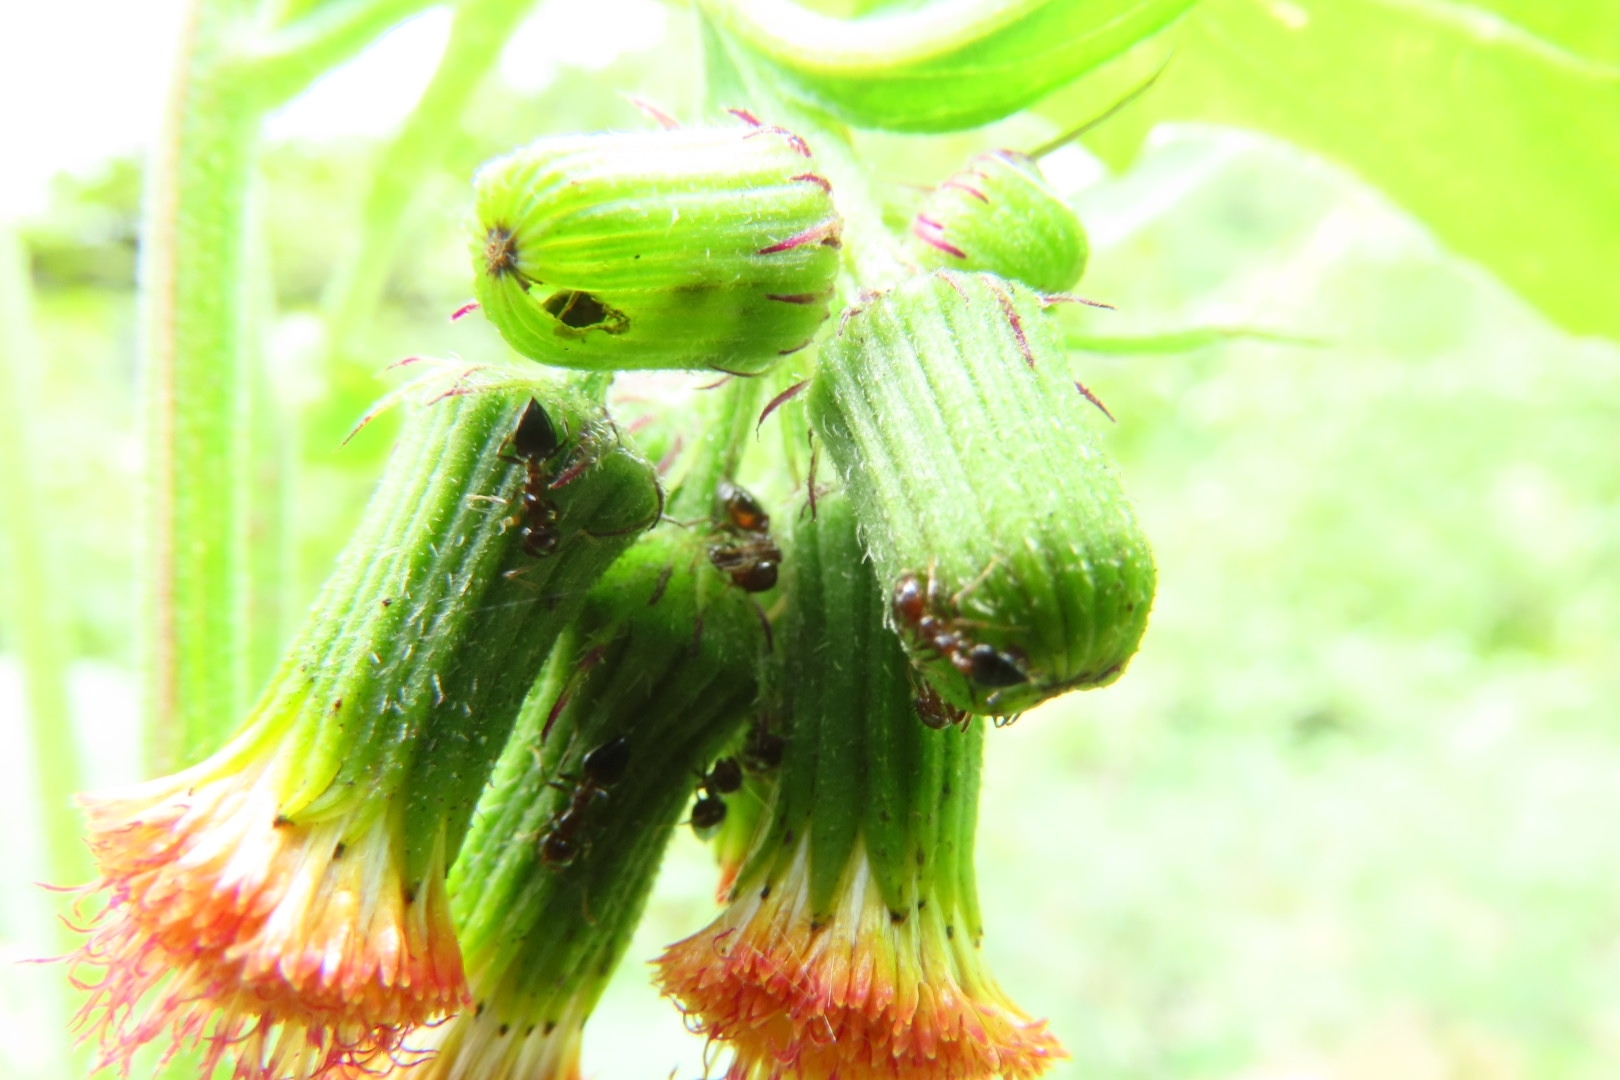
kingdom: Plantae
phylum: Tracheophyta
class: Magnoliopsida
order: Asterales
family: Asteraceae
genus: Crassocephalum
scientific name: Crassocephalum crepidioides
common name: Redflower ragleaf
